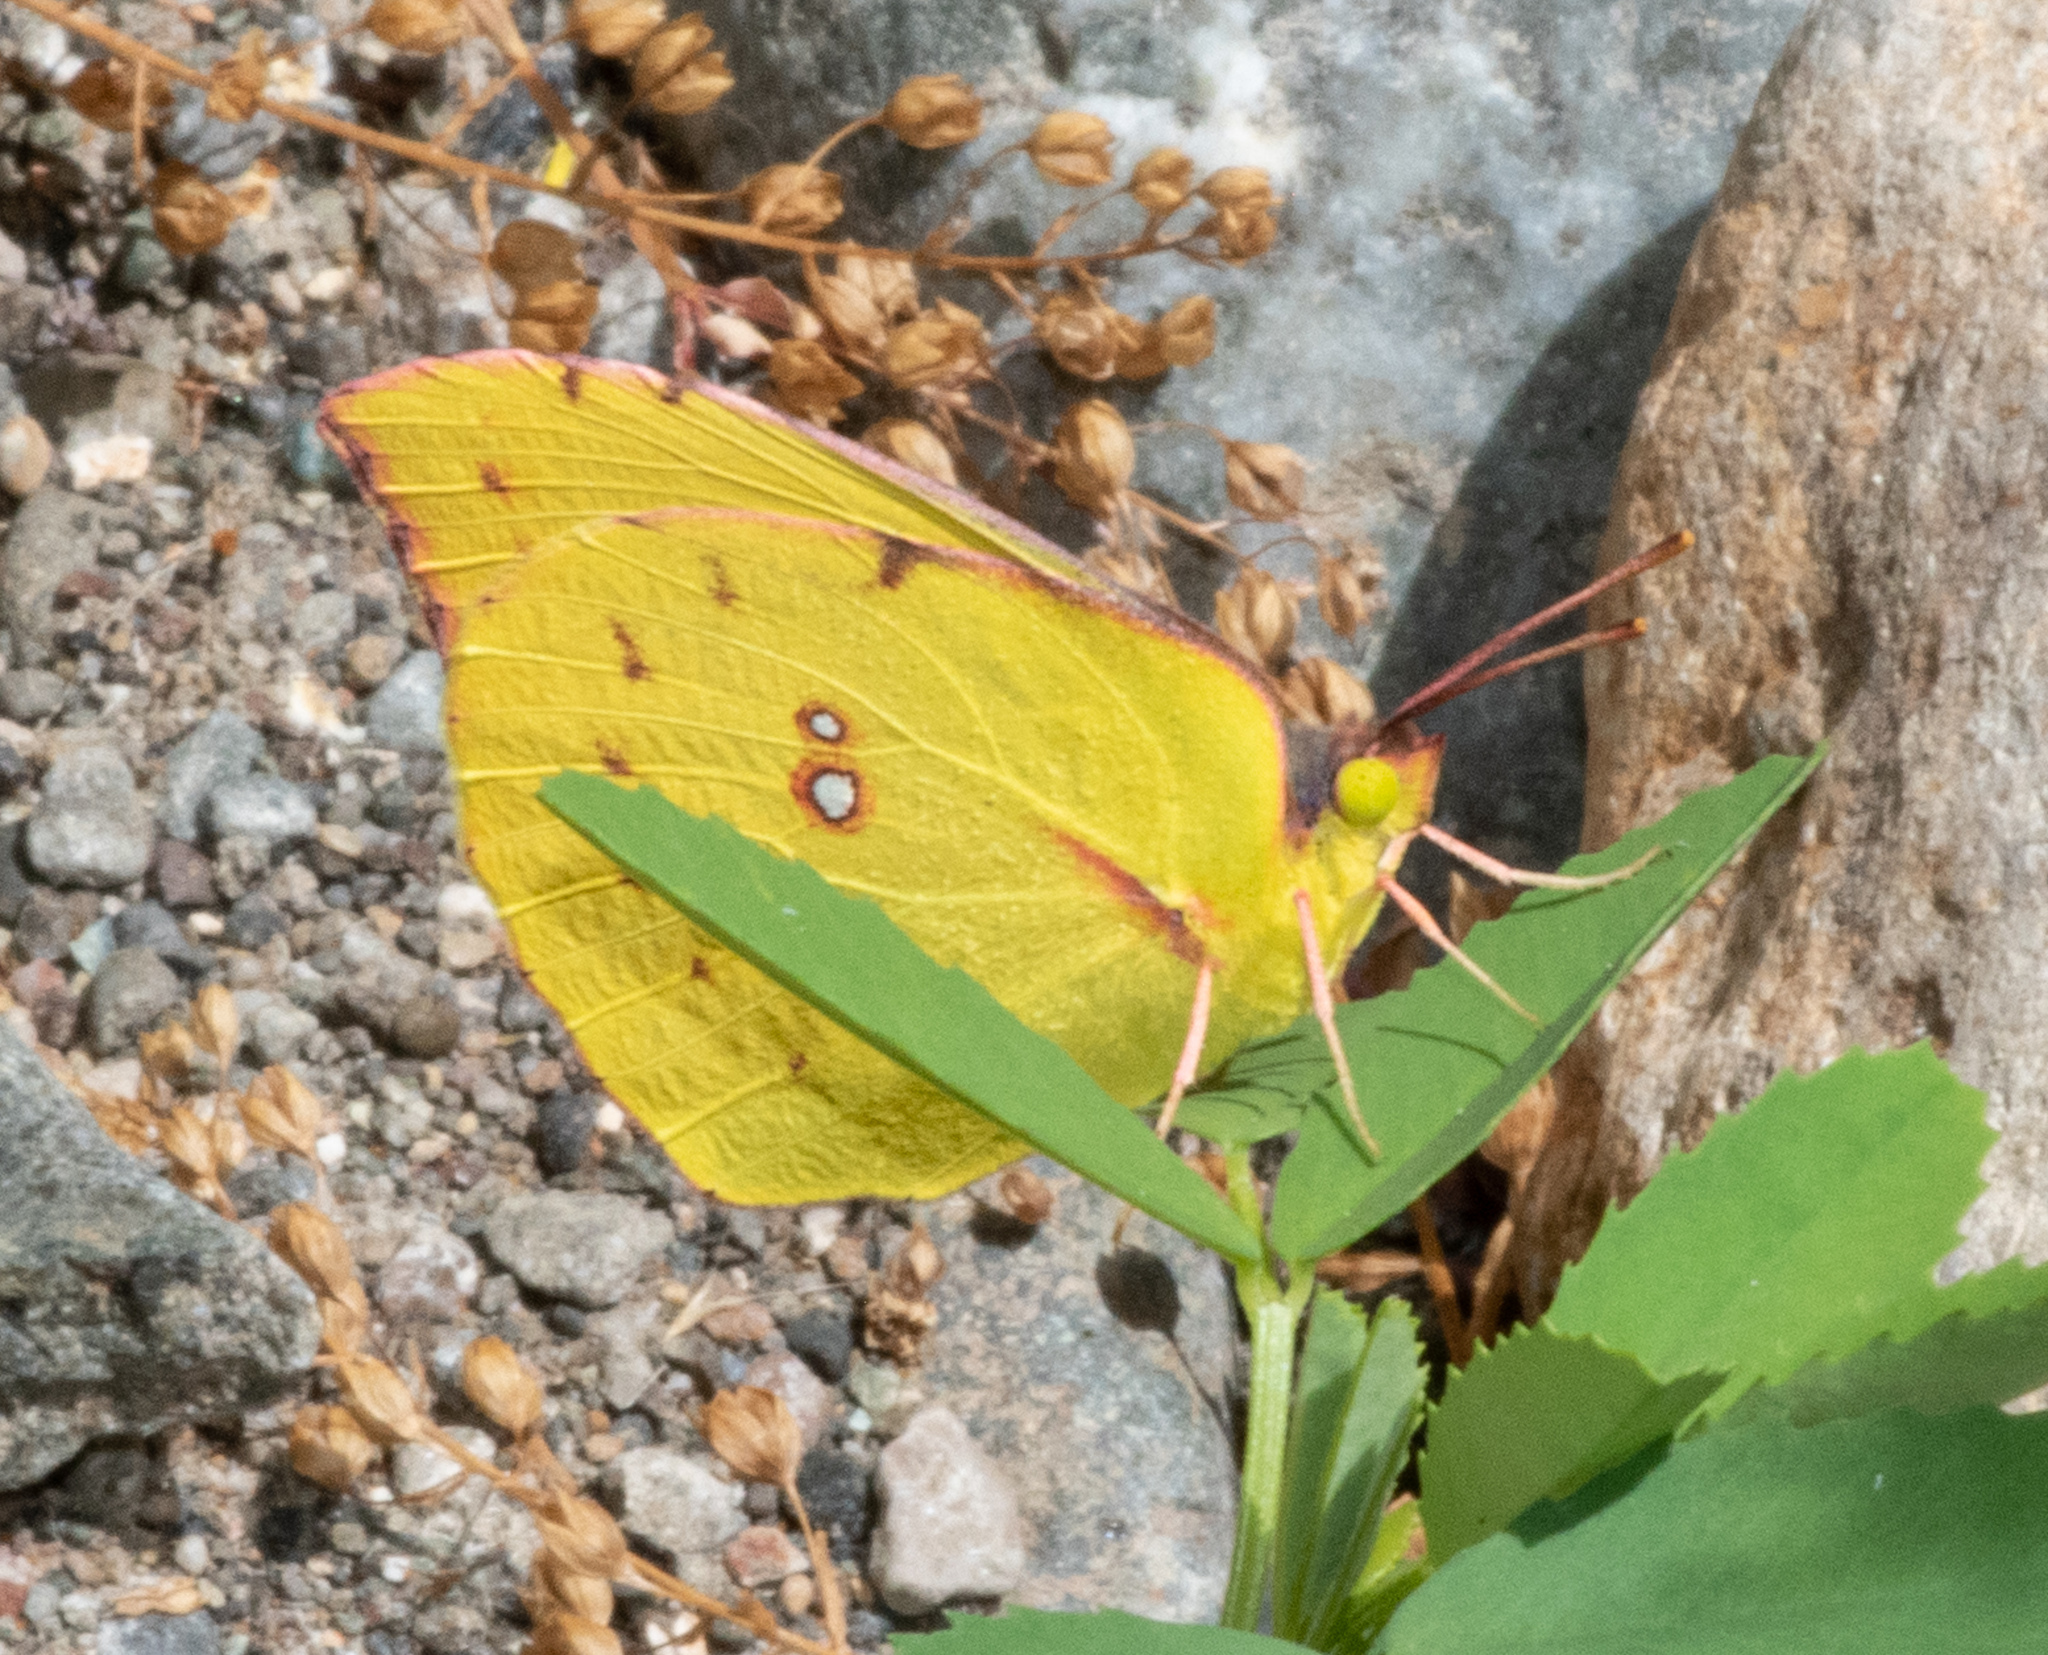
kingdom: Animalia
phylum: Arthropoda
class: Insecta
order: Lepidoptera
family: Pieridae
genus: Zerene
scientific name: Zerene eurydice
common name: California dogface
